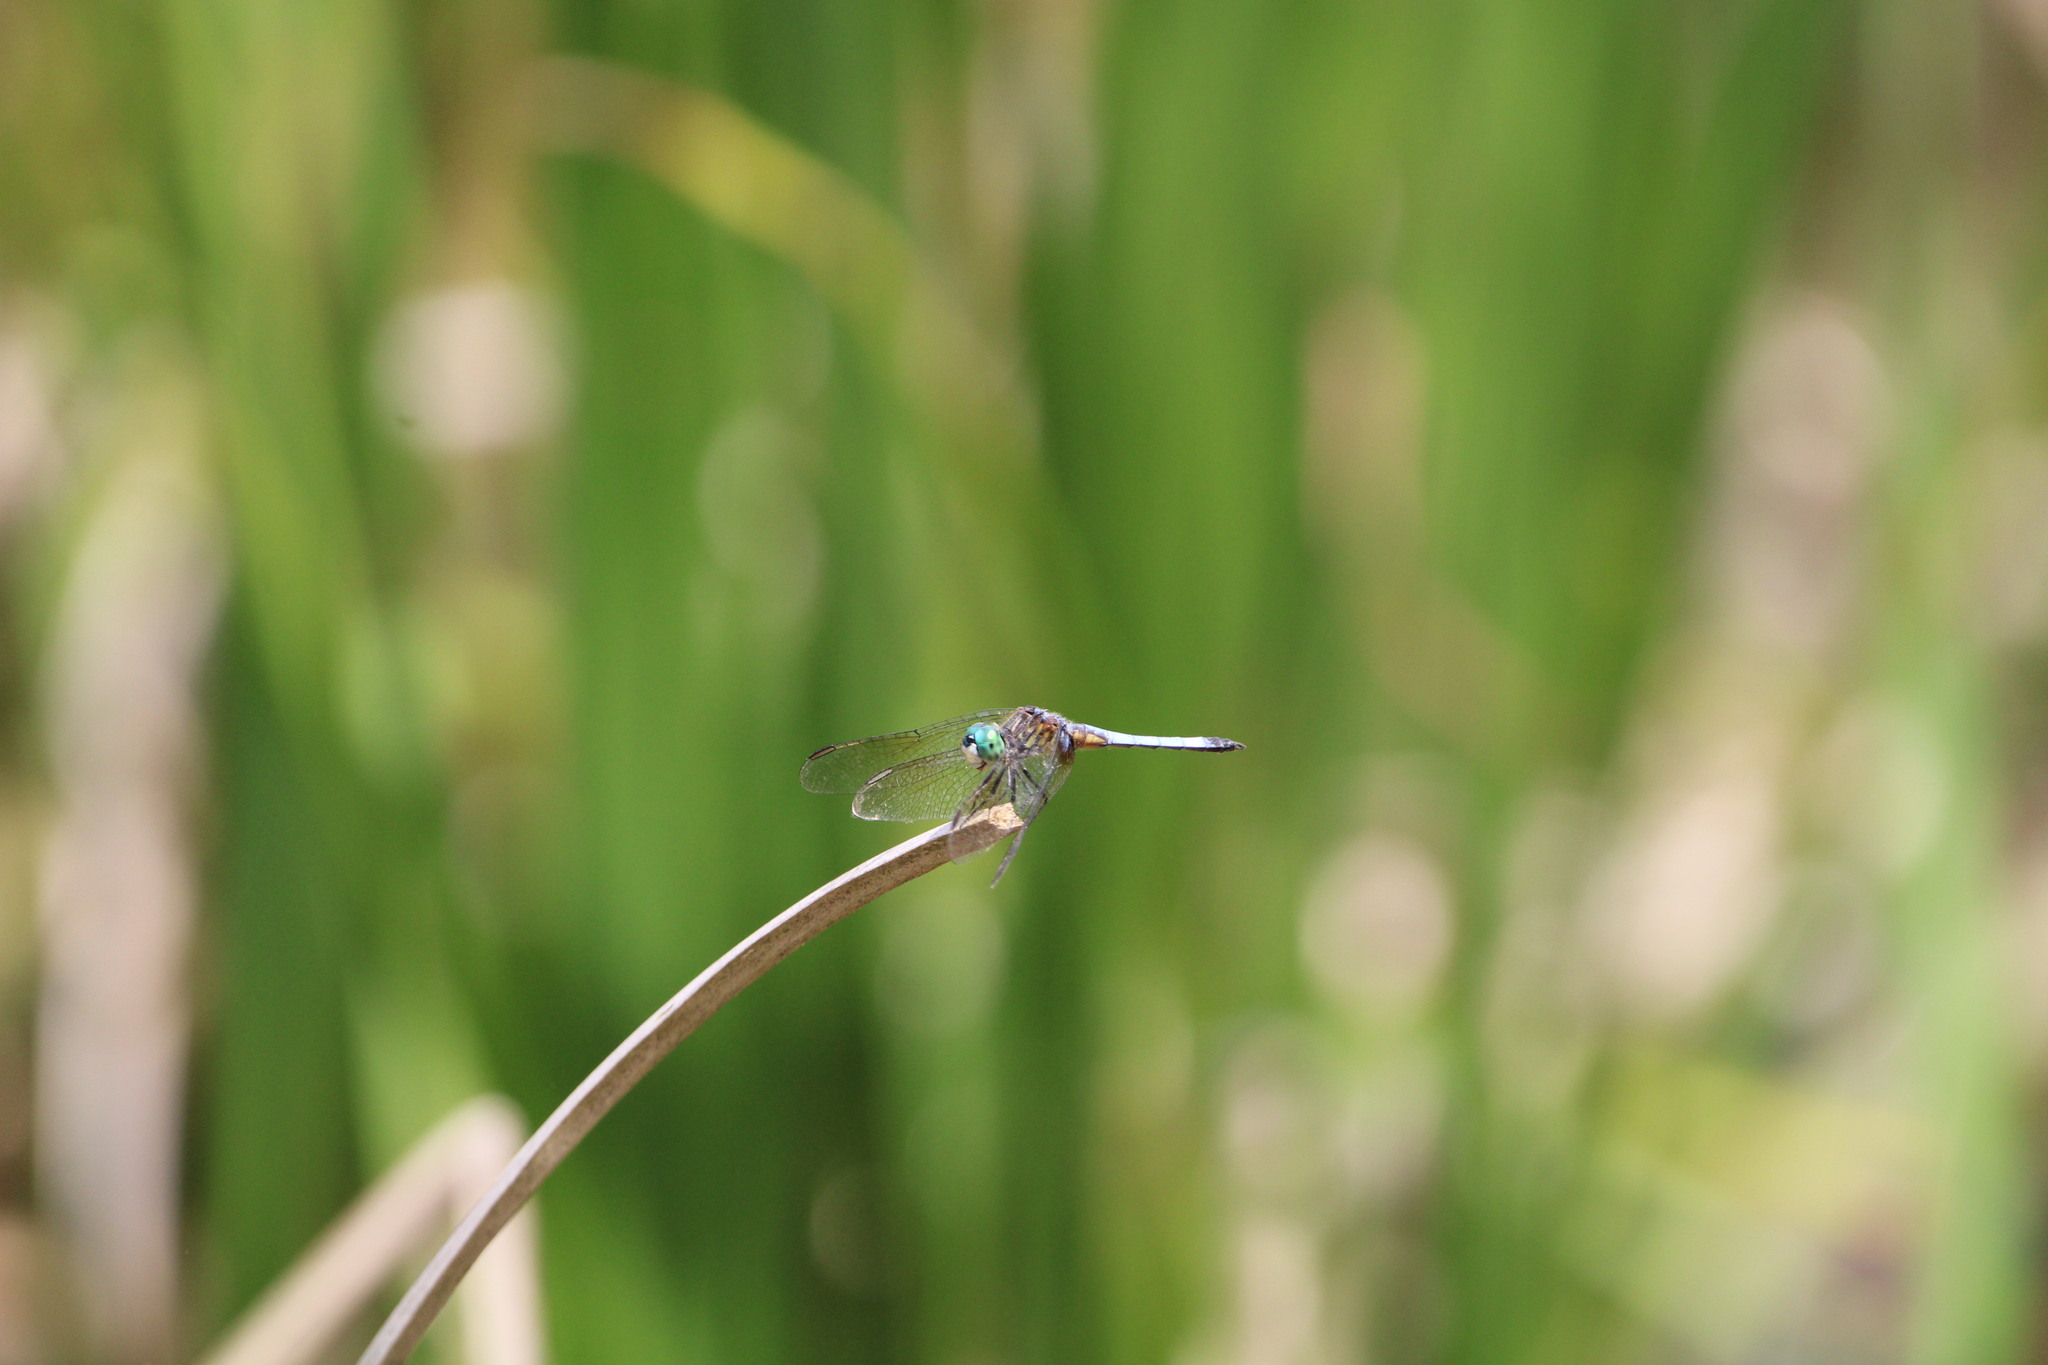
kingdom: Animalia
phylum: Arthropoda
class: Insecta
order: Odonata
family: Libellulidae
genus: Pachydiplax
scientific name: Pachydiplax longipennis
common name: Blue dasher
